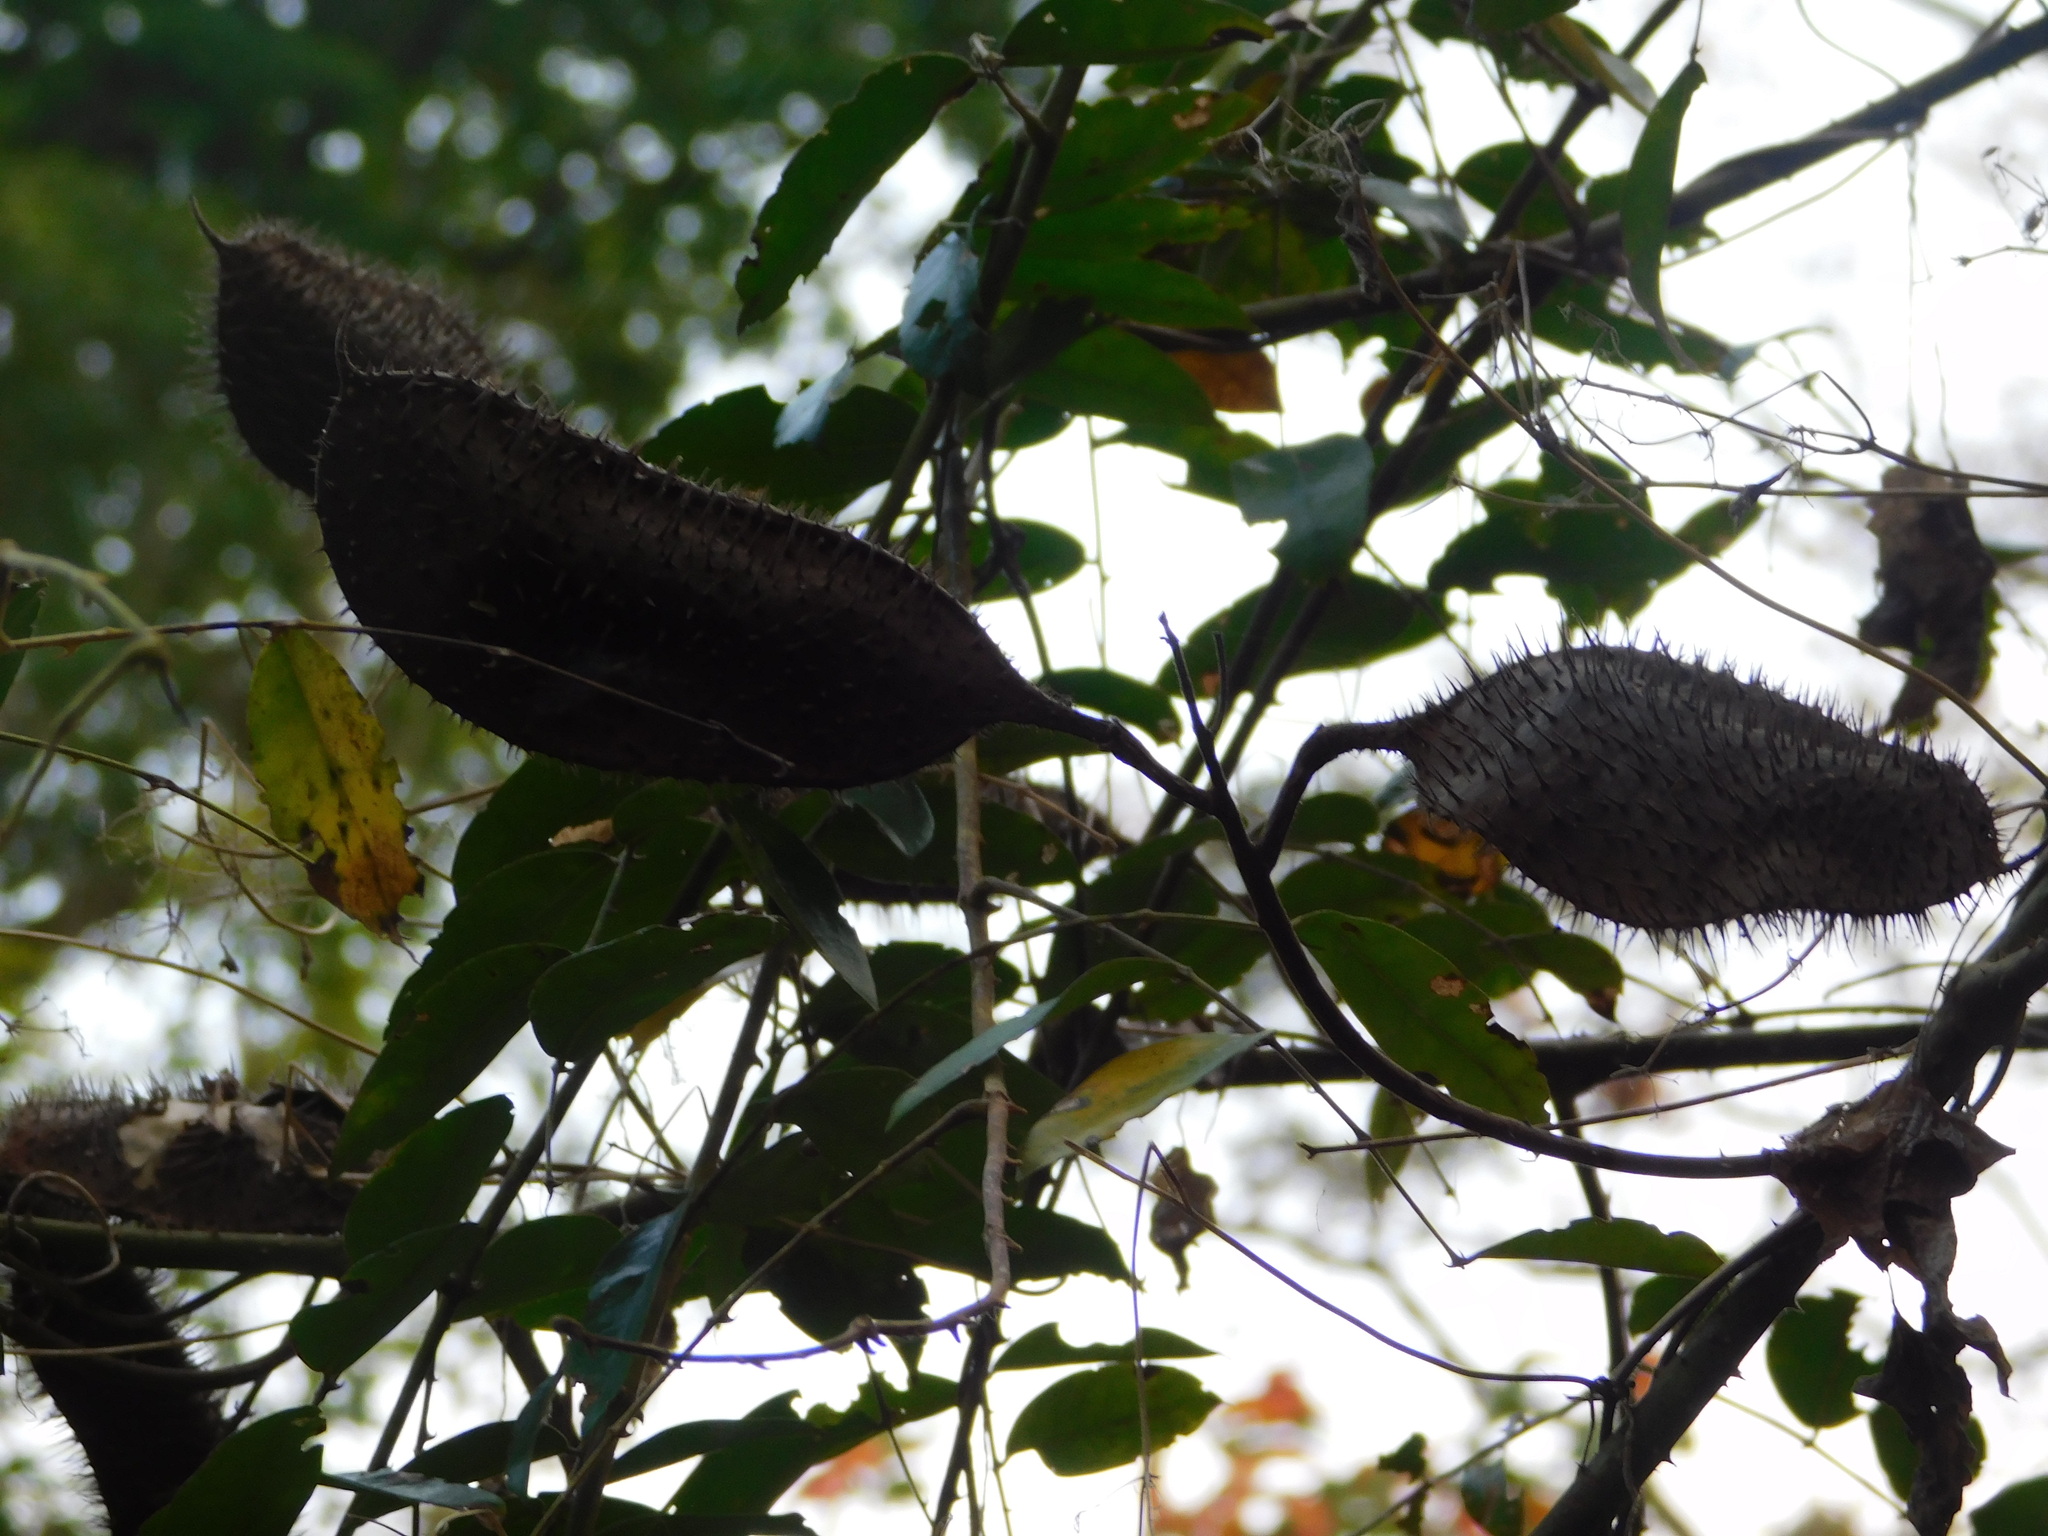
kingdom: Plantae
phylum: Tracheophyta
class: Magnoliopsida
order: Fabales
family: Fabaceae
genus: Guilandina
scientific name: Guilandina bonduc
